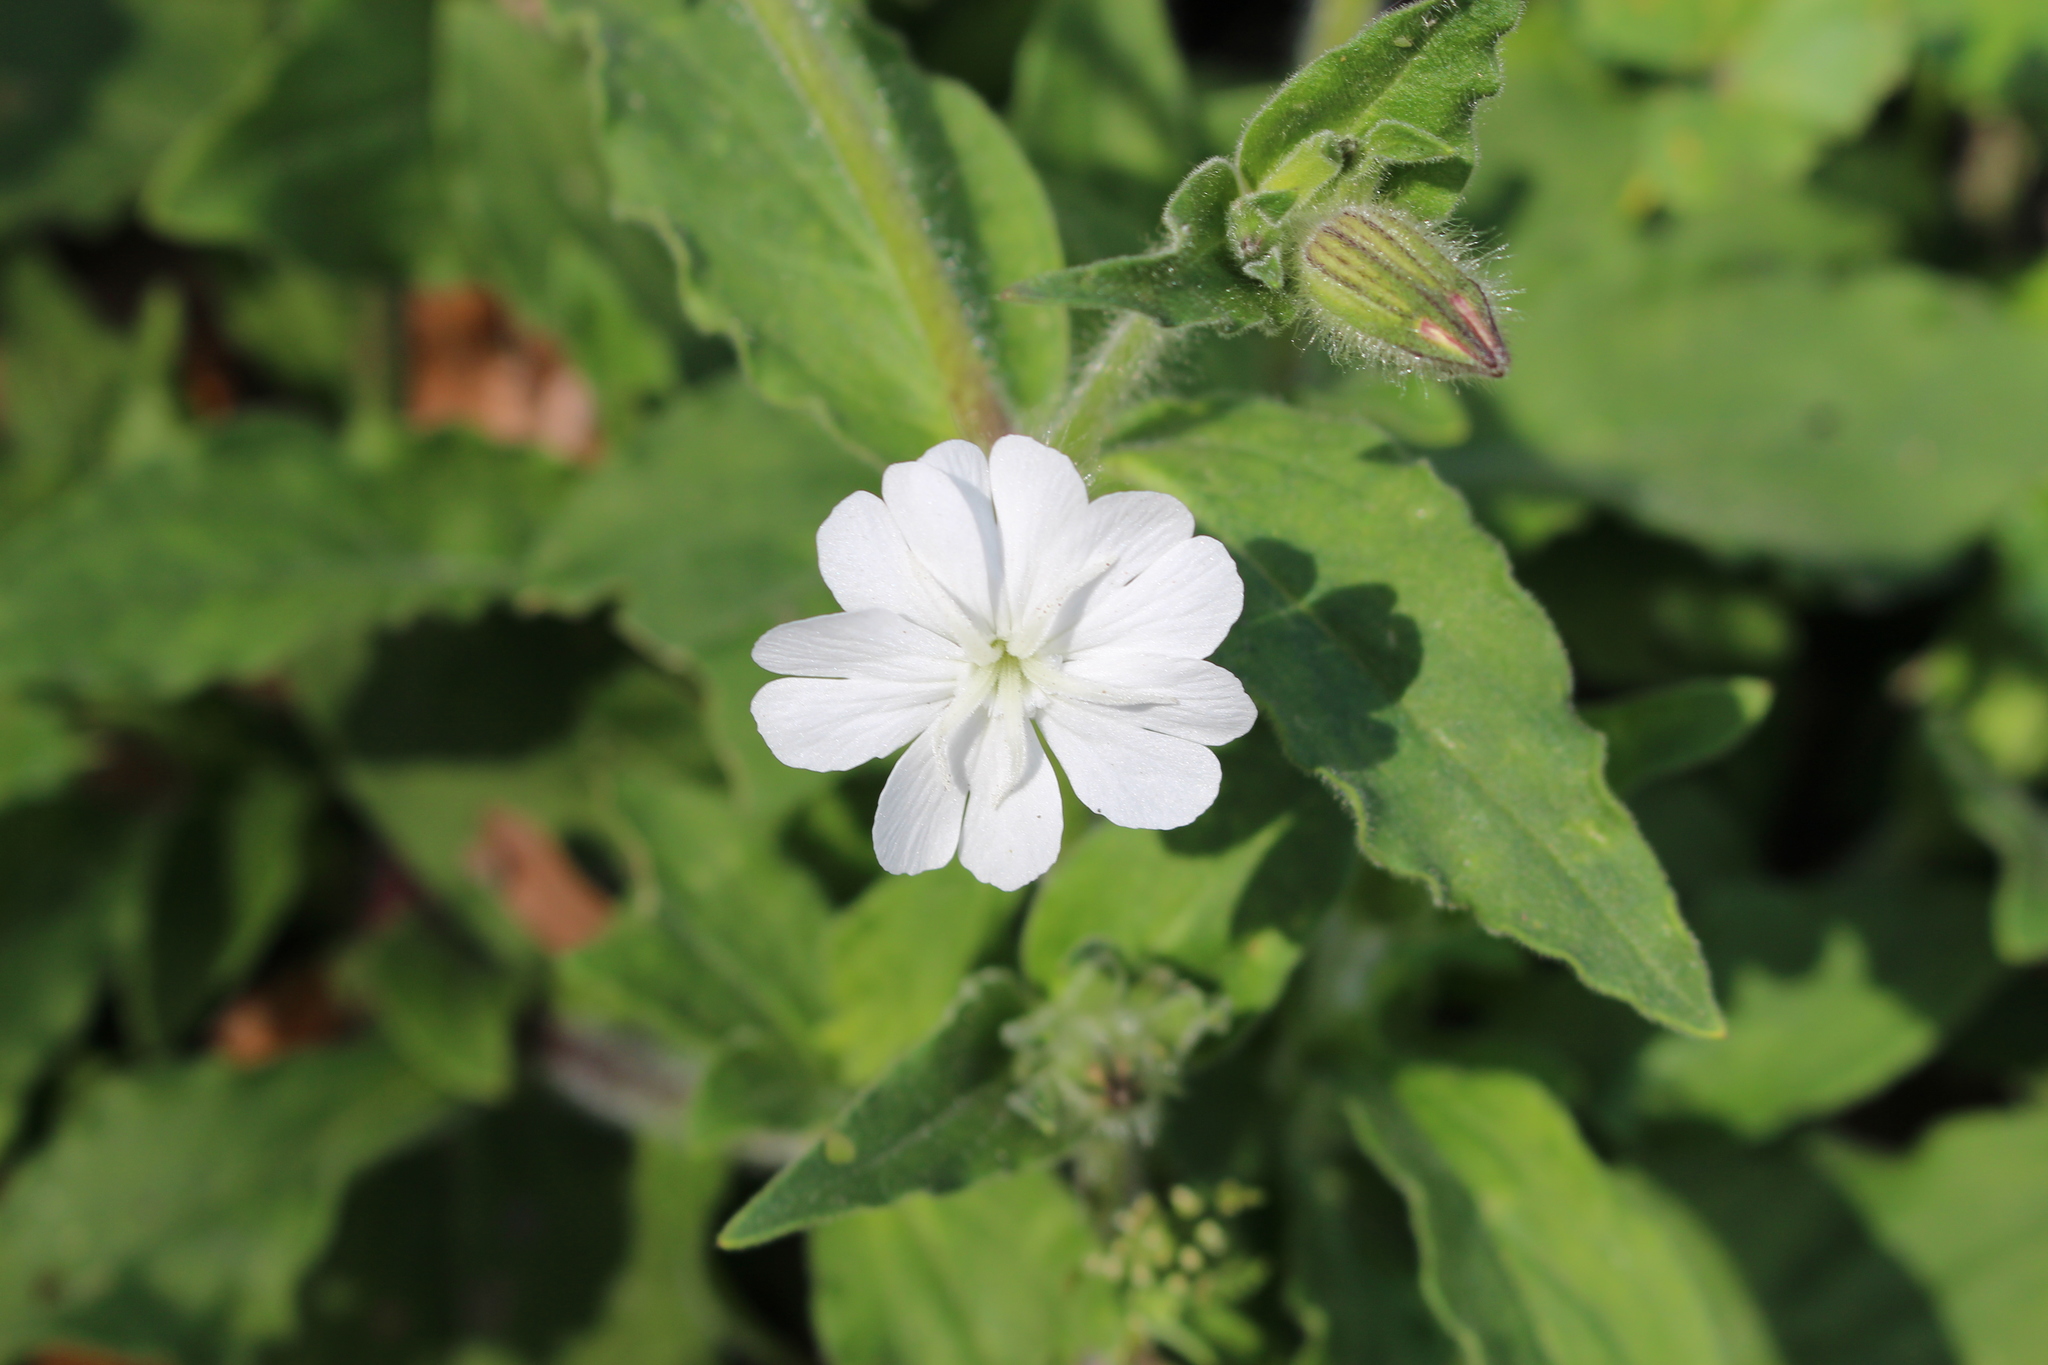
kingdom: Plantae
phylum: Tracheophyta
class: Magnoliopsida
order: Caryophyllales
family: Caryophyllaceae
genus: Silene
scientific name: Silene latifolia
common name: White campion
